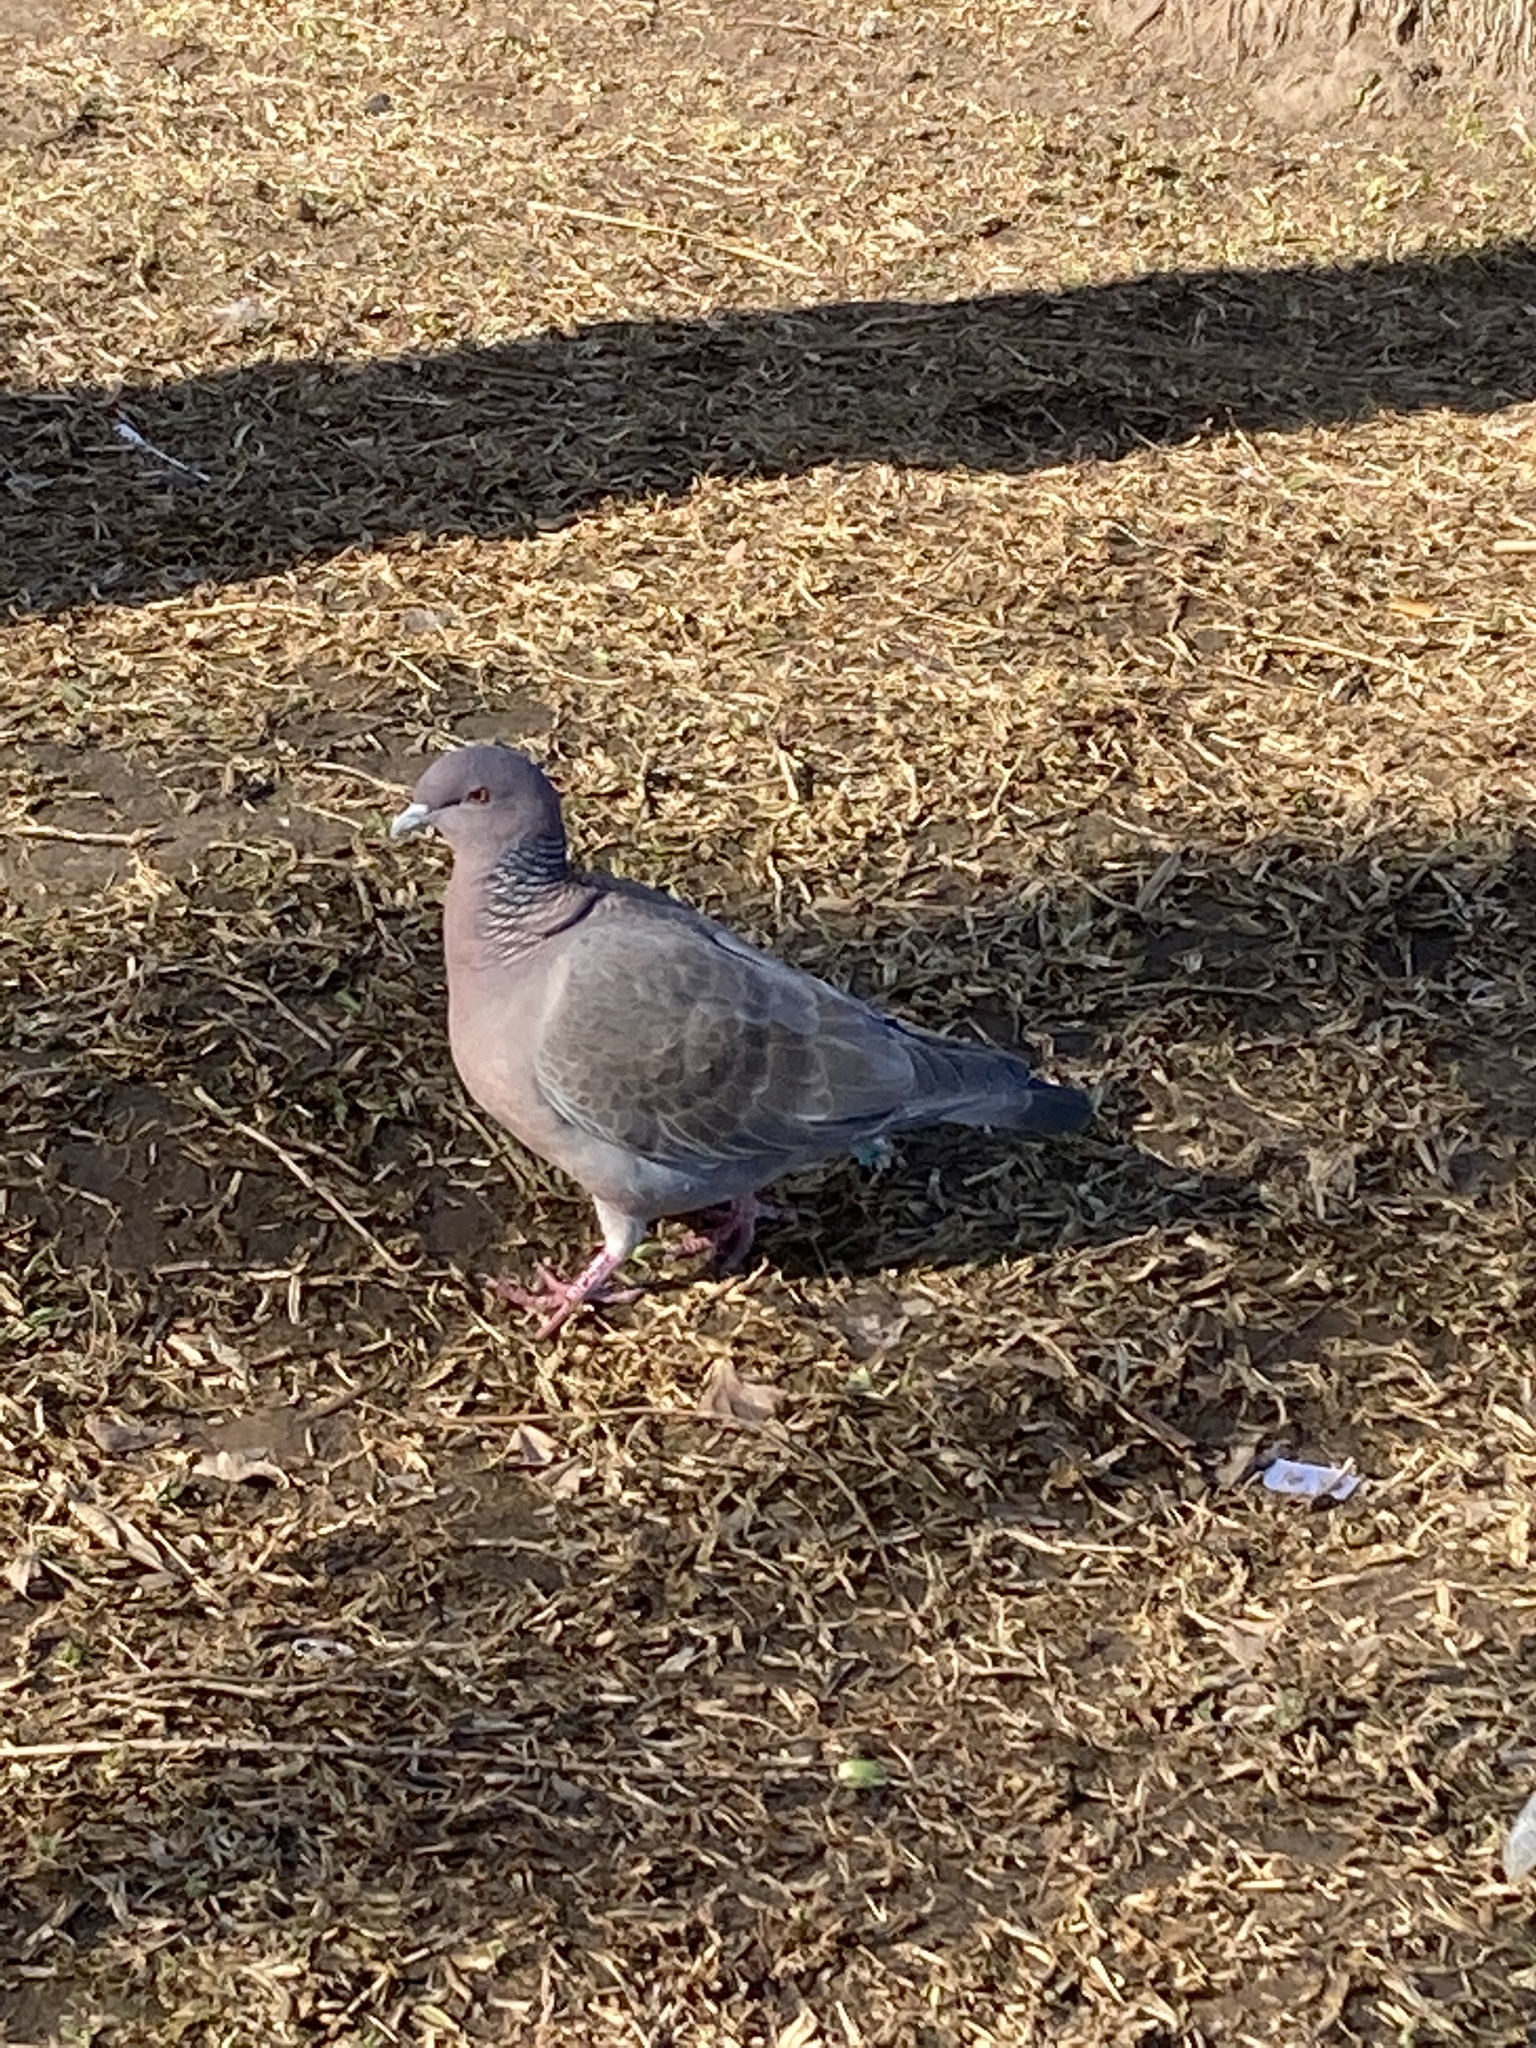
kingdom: Animalia
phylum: Chordata
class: Aves
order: Columbiformes
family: Columbidae
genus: Patagioenas
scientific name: Patagioenas picazuro
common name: Picazuro pigeon
